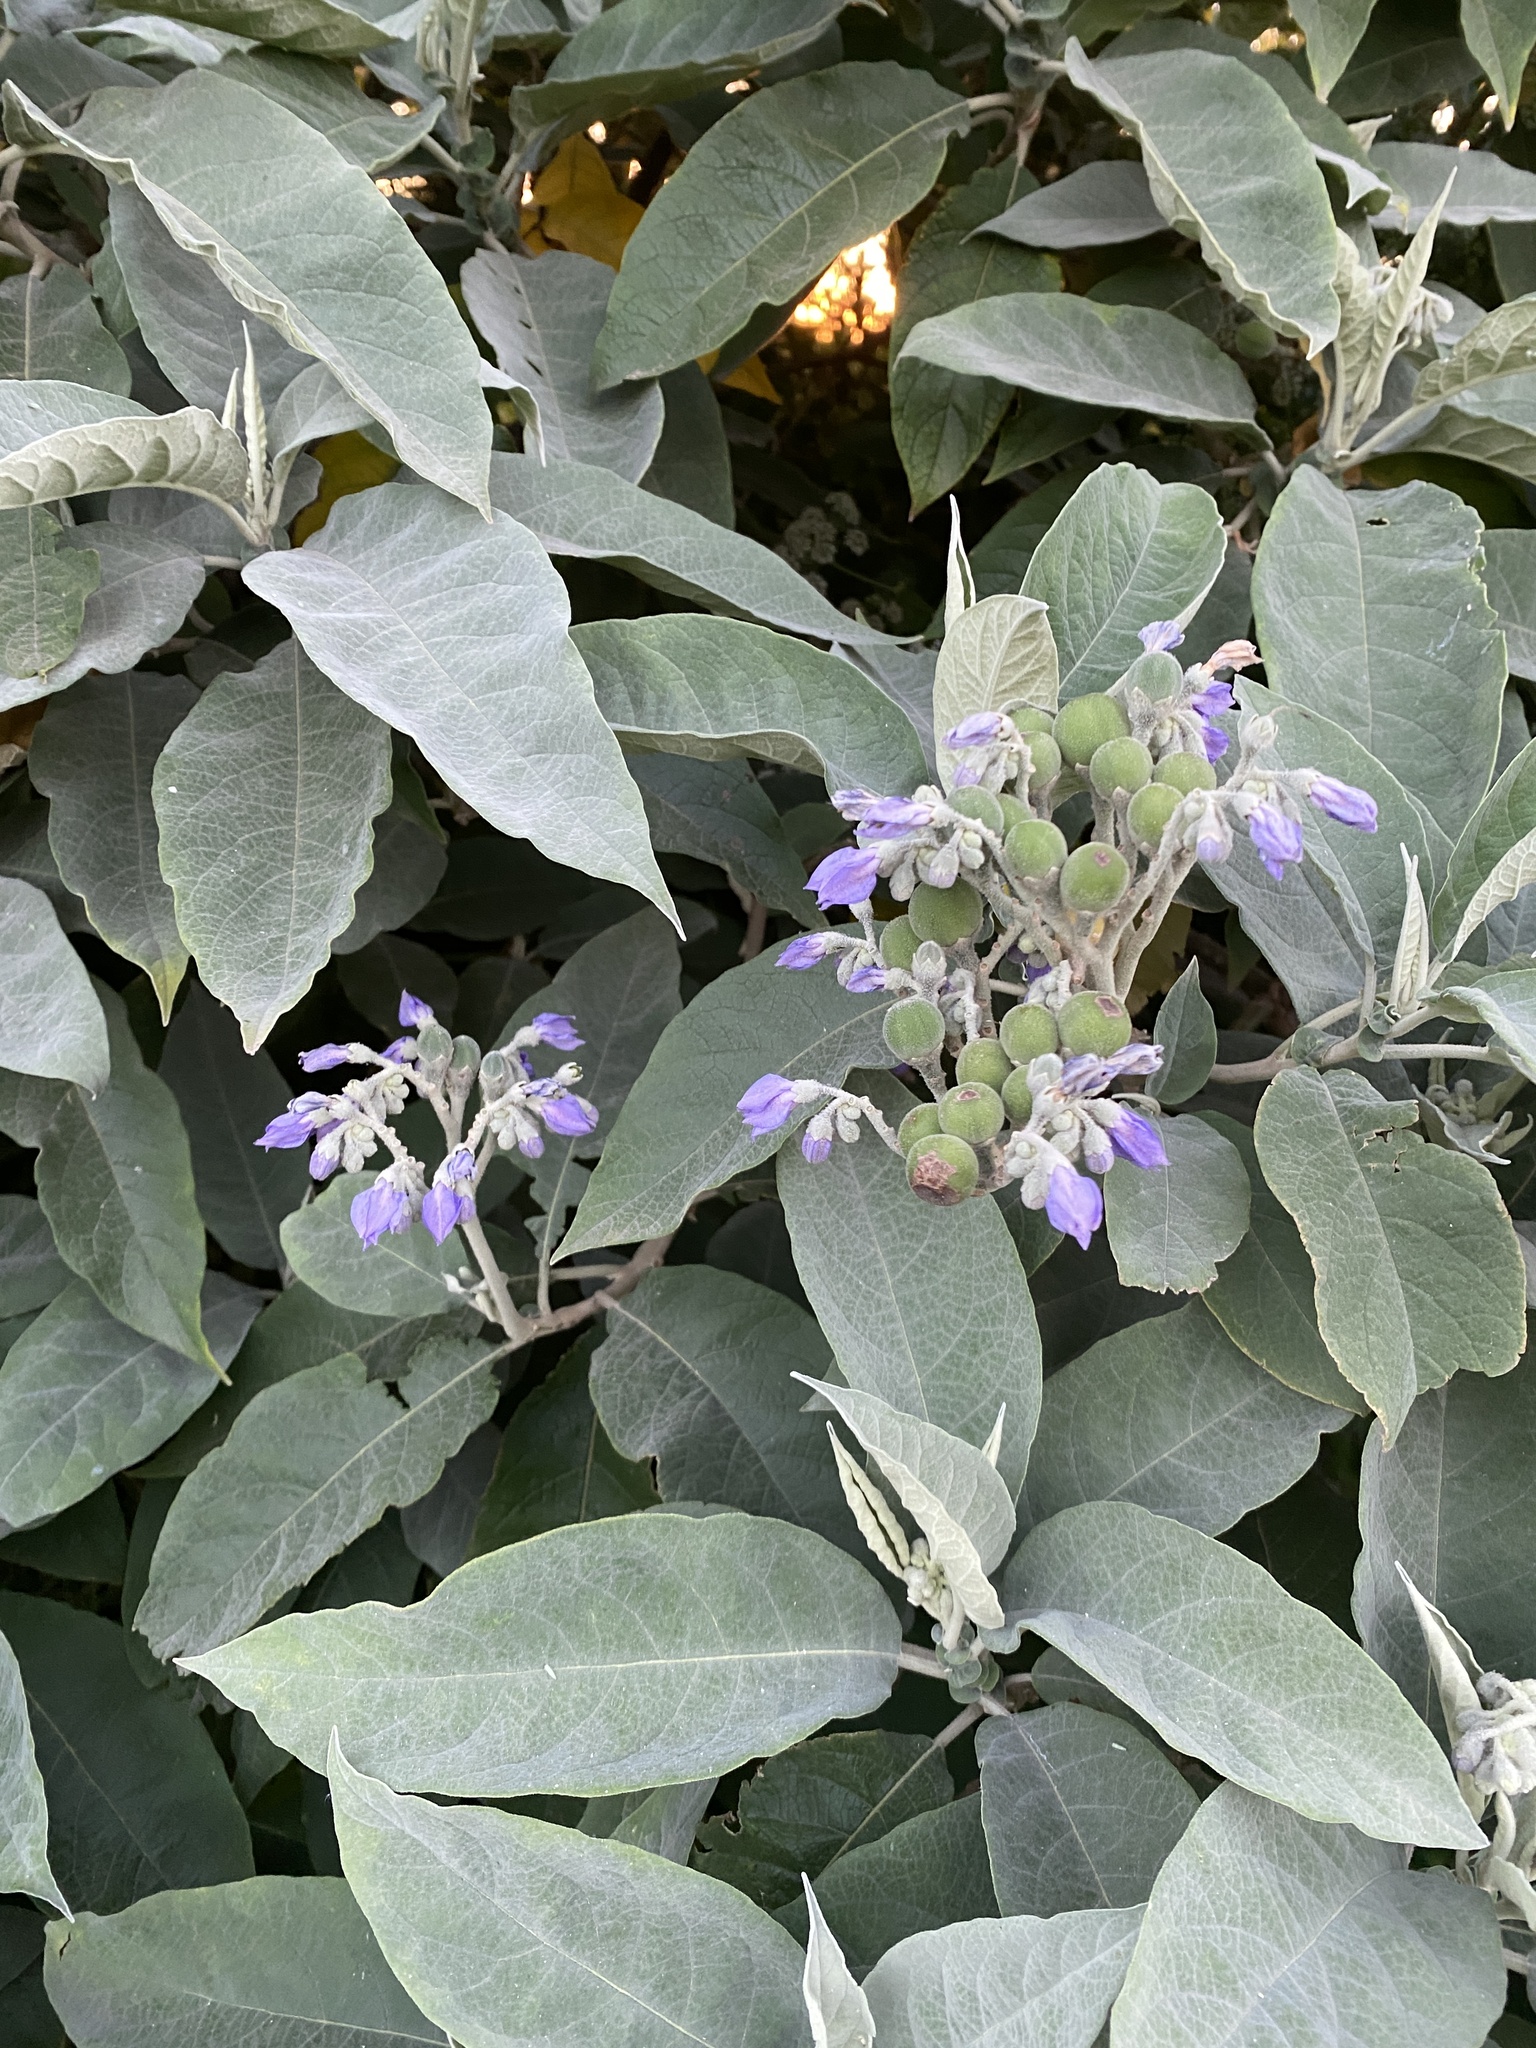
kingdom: Plantae
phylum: Tracheophyta
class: Magnoliopsida
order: Solanales
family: Solanaceae
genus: Solanum
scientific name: Solanum granulosoleprosum
